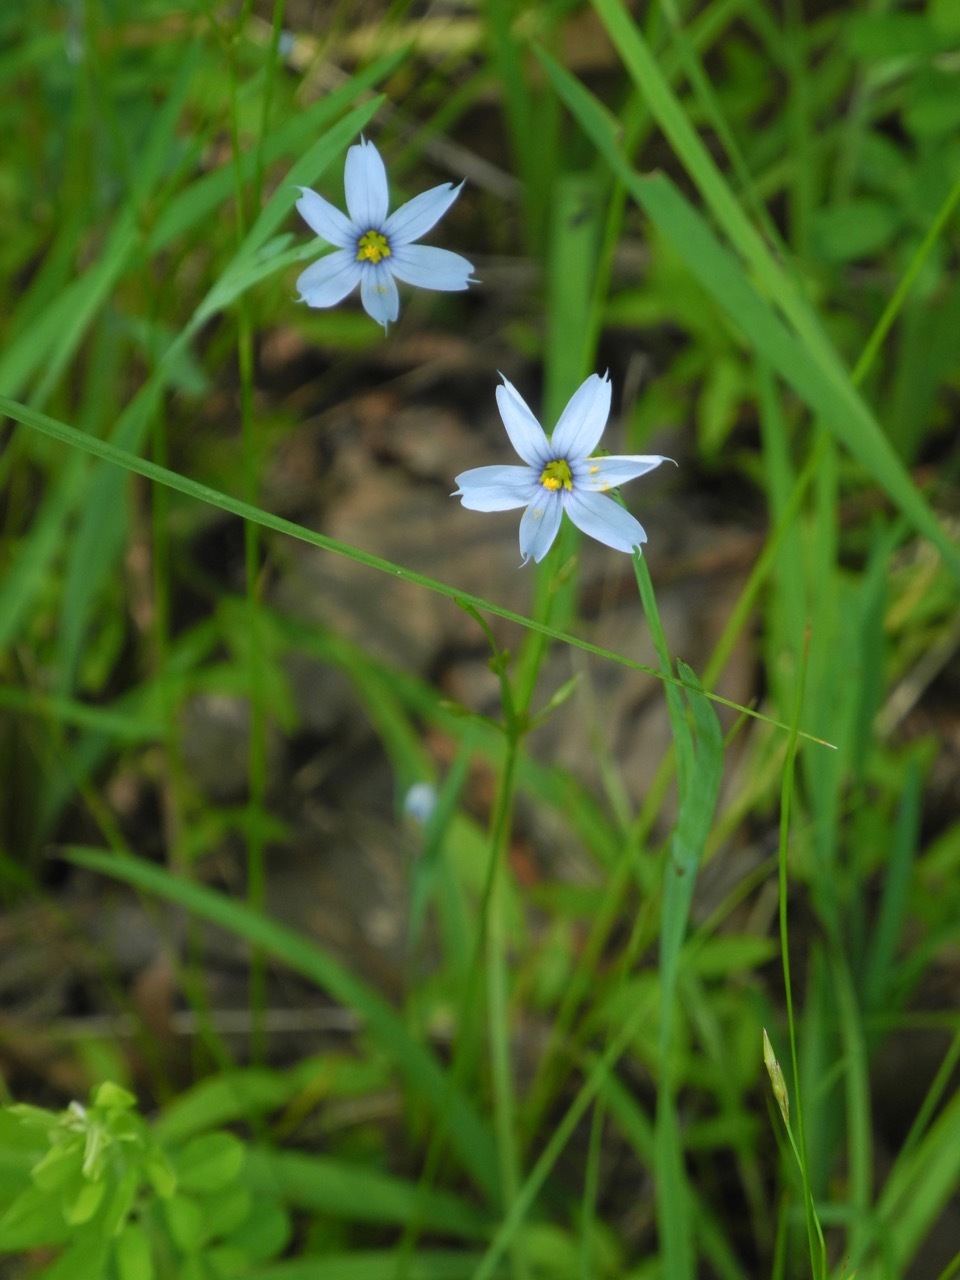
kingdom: Plantae
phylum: Tracheophyta
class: Liliopsida
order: Asparagales
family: Iridaceae
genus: Sisyrinchium
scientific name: Sisyrinchium angustifolium
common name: Narrow-leaf blue-eyed-grass
